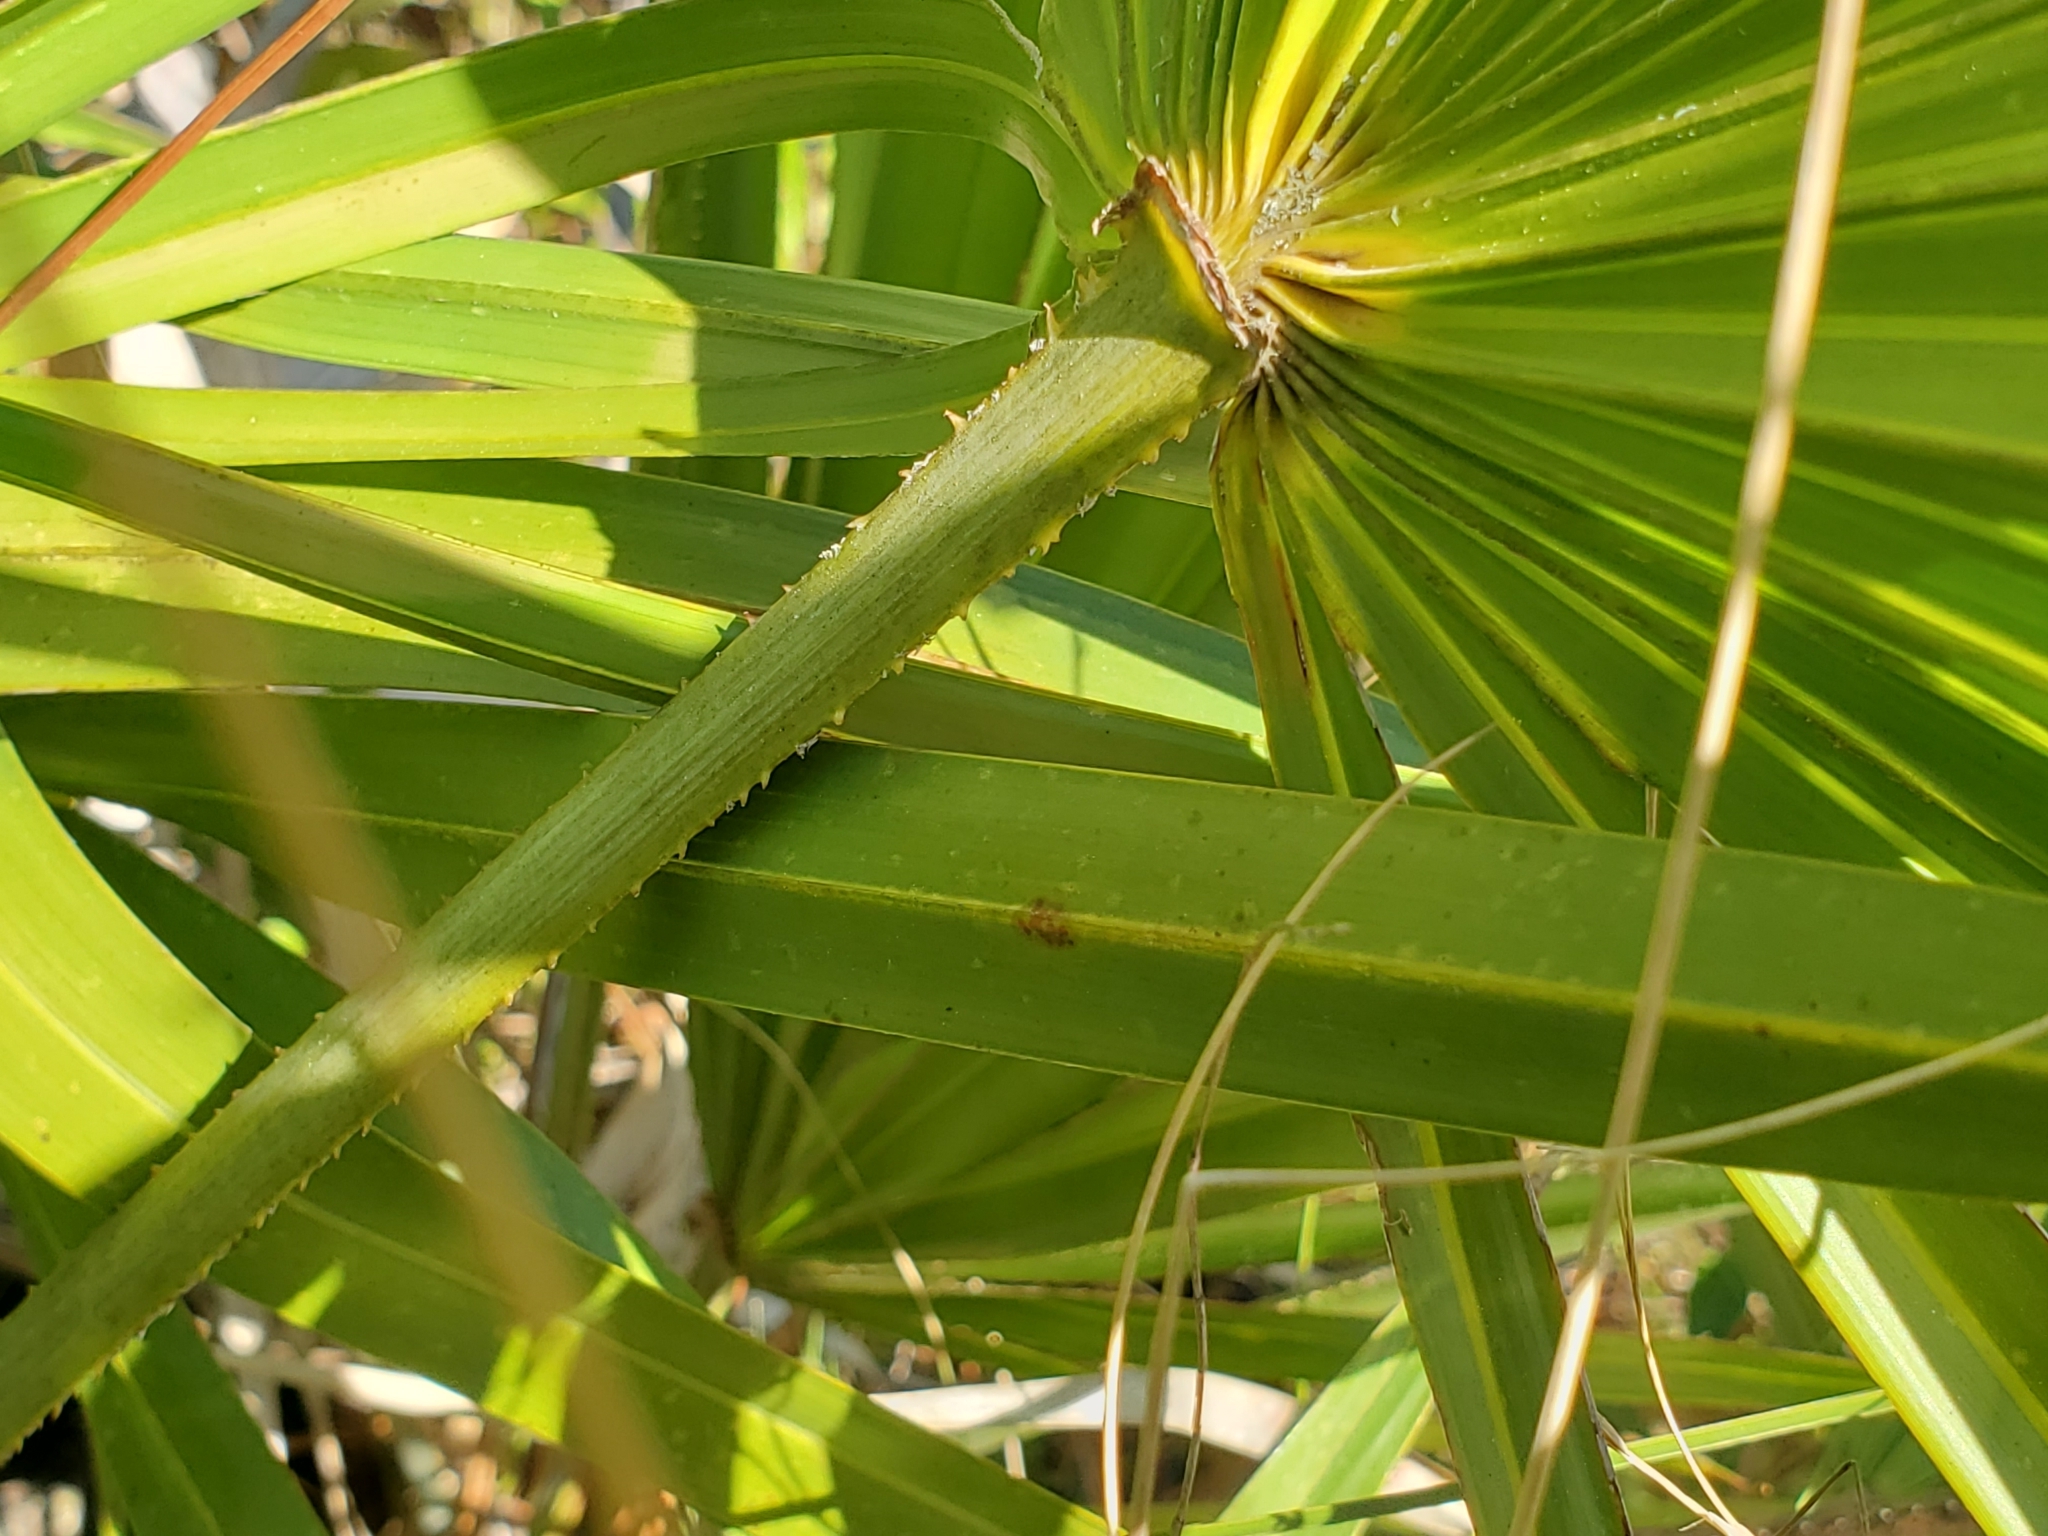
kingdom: Plantae
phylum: Tracheophyta
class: Liliopsida
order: Arecales
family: Arecaceae
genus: Serenoa
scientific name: Serenoa repens
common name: Saw-palmetto
